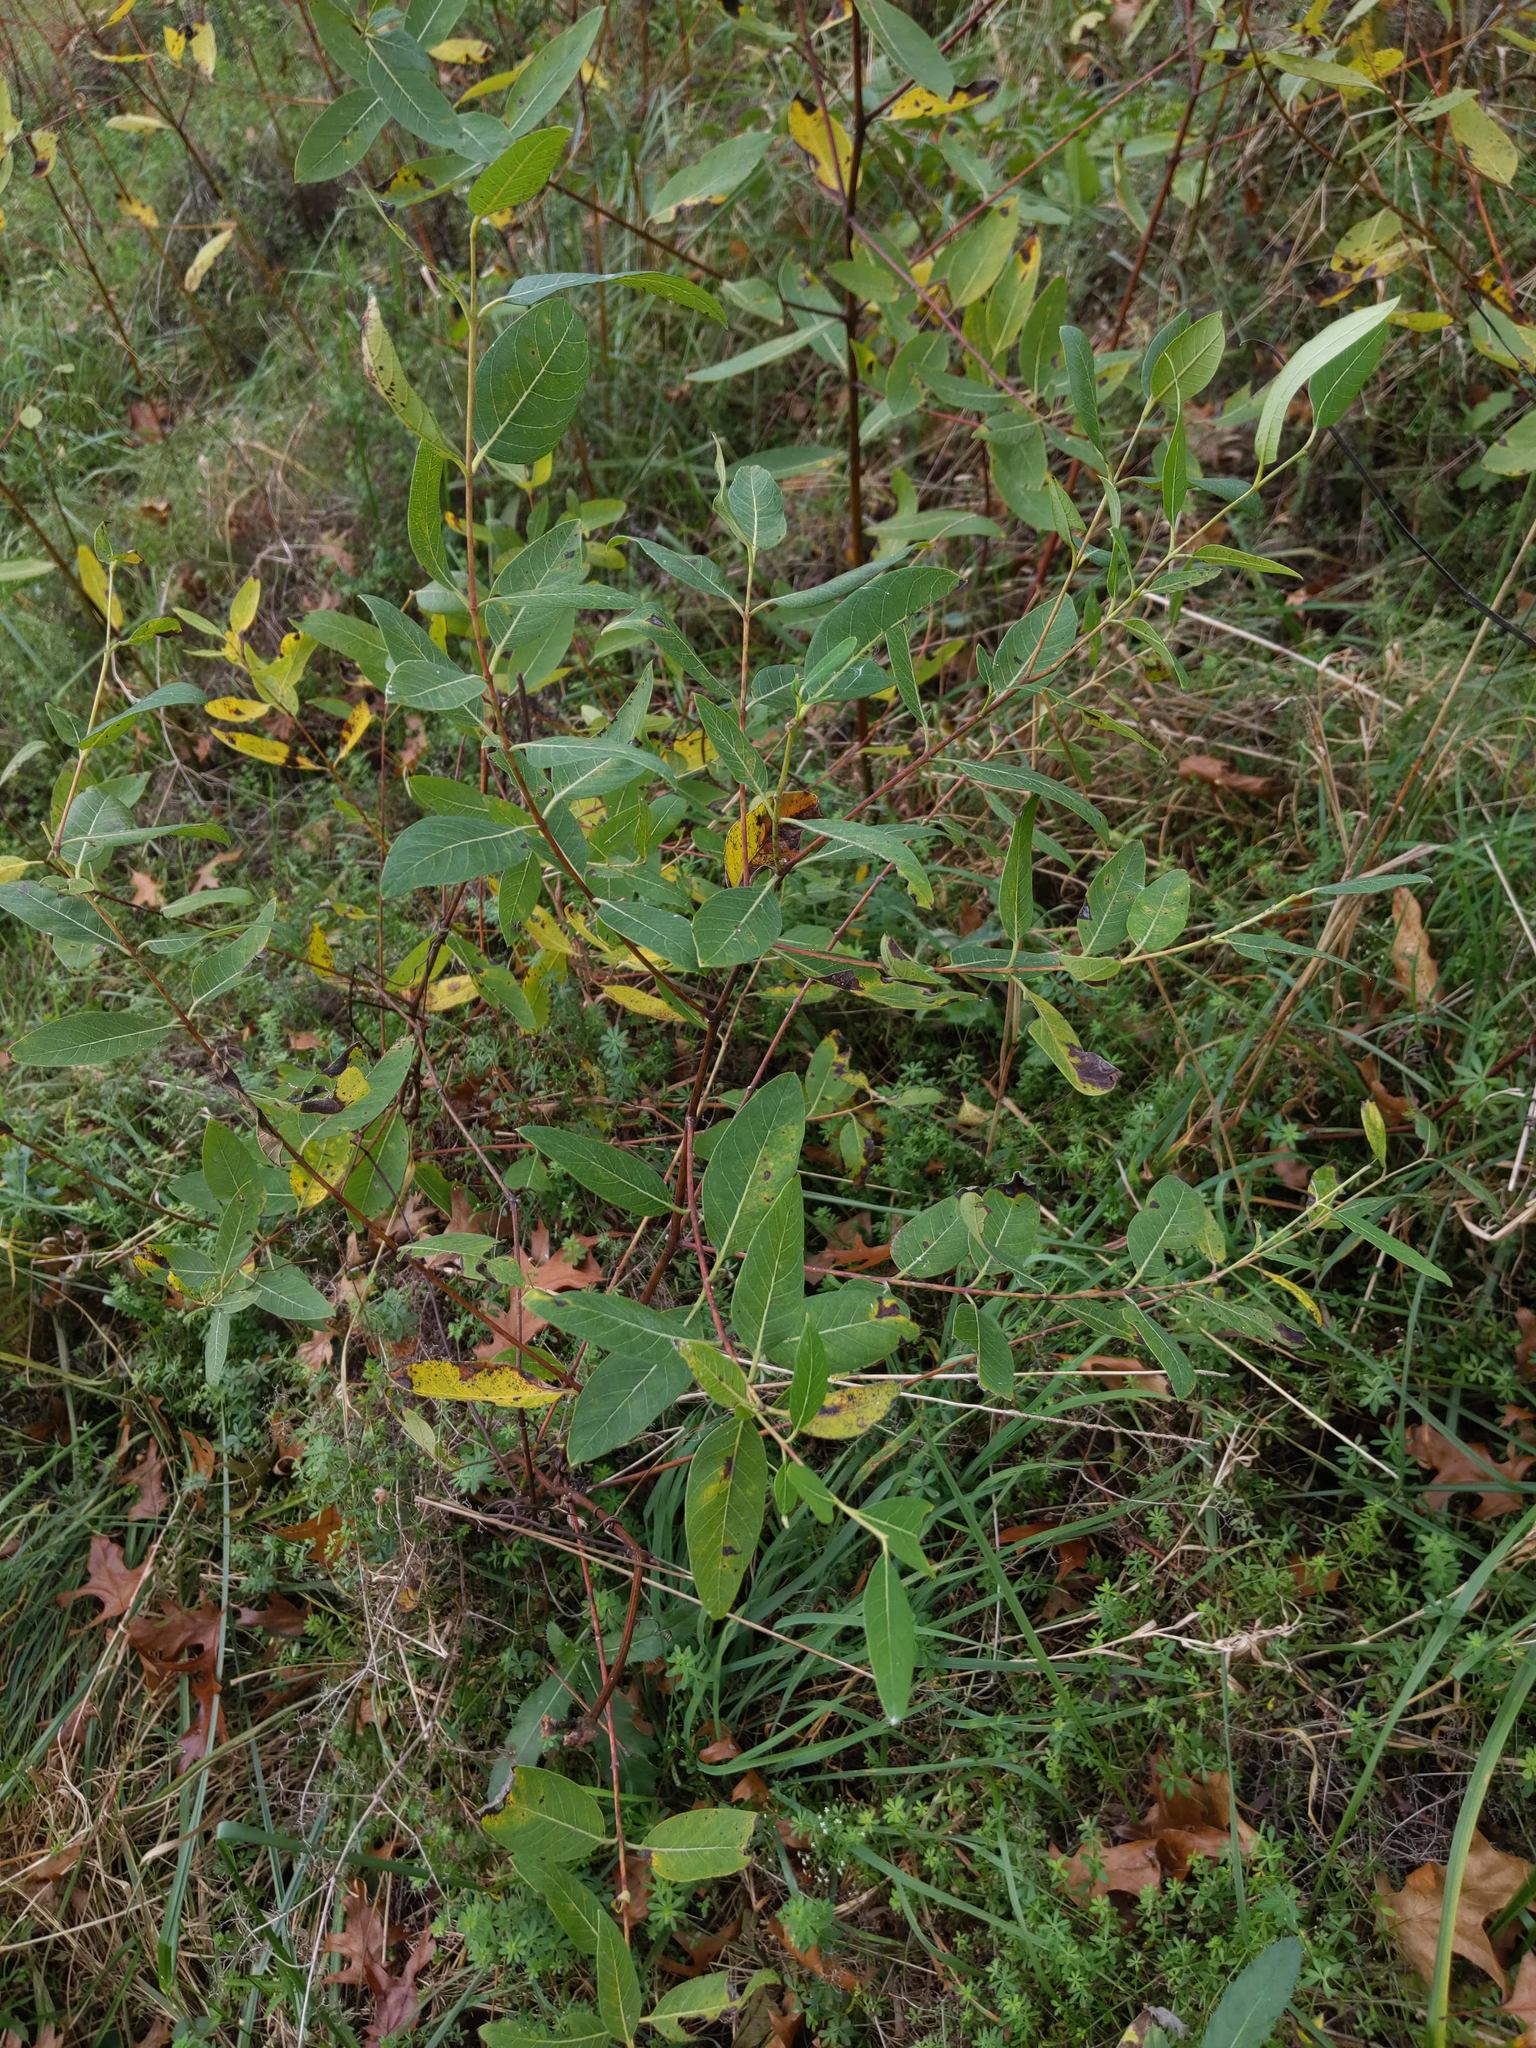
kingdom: Plantae
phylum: Tracheophyta
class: Magnoliopsida
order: Gentianales
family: Apocynaceae
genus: Apocynum
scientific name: Apocynum cannabinum
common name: Hemp dogbane
